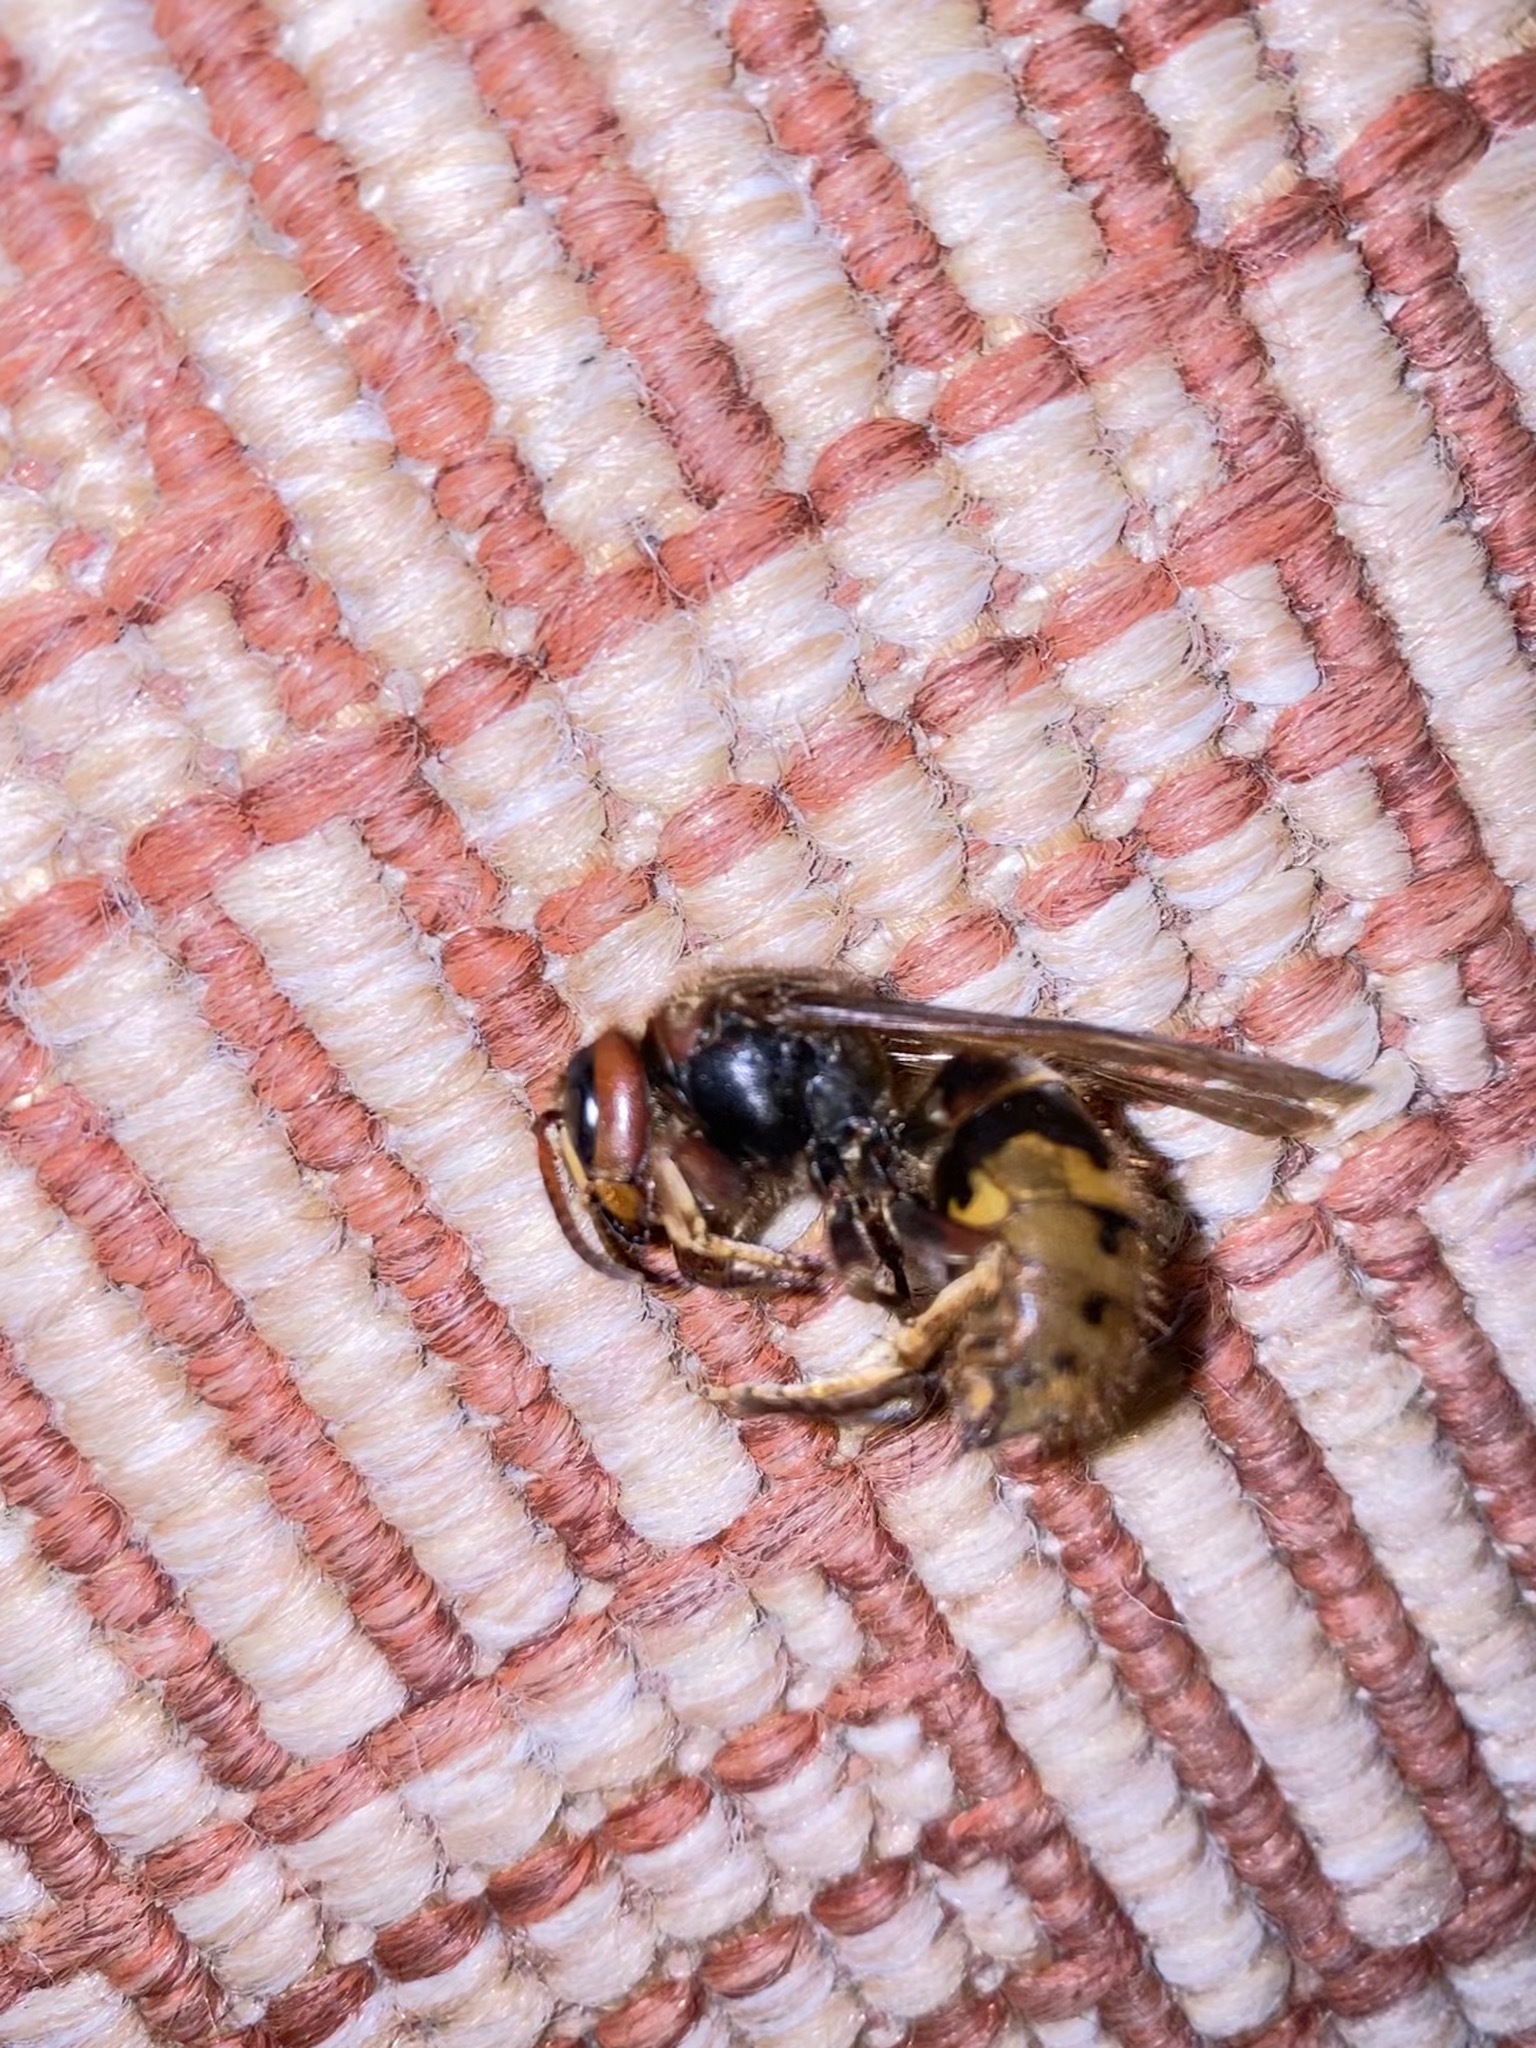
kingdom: Animalia
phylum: Arthropoda
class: Insecta
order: Hymenoptera
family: Vespidae
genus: Vespa
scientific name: Vespa crabro
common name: Hornet
